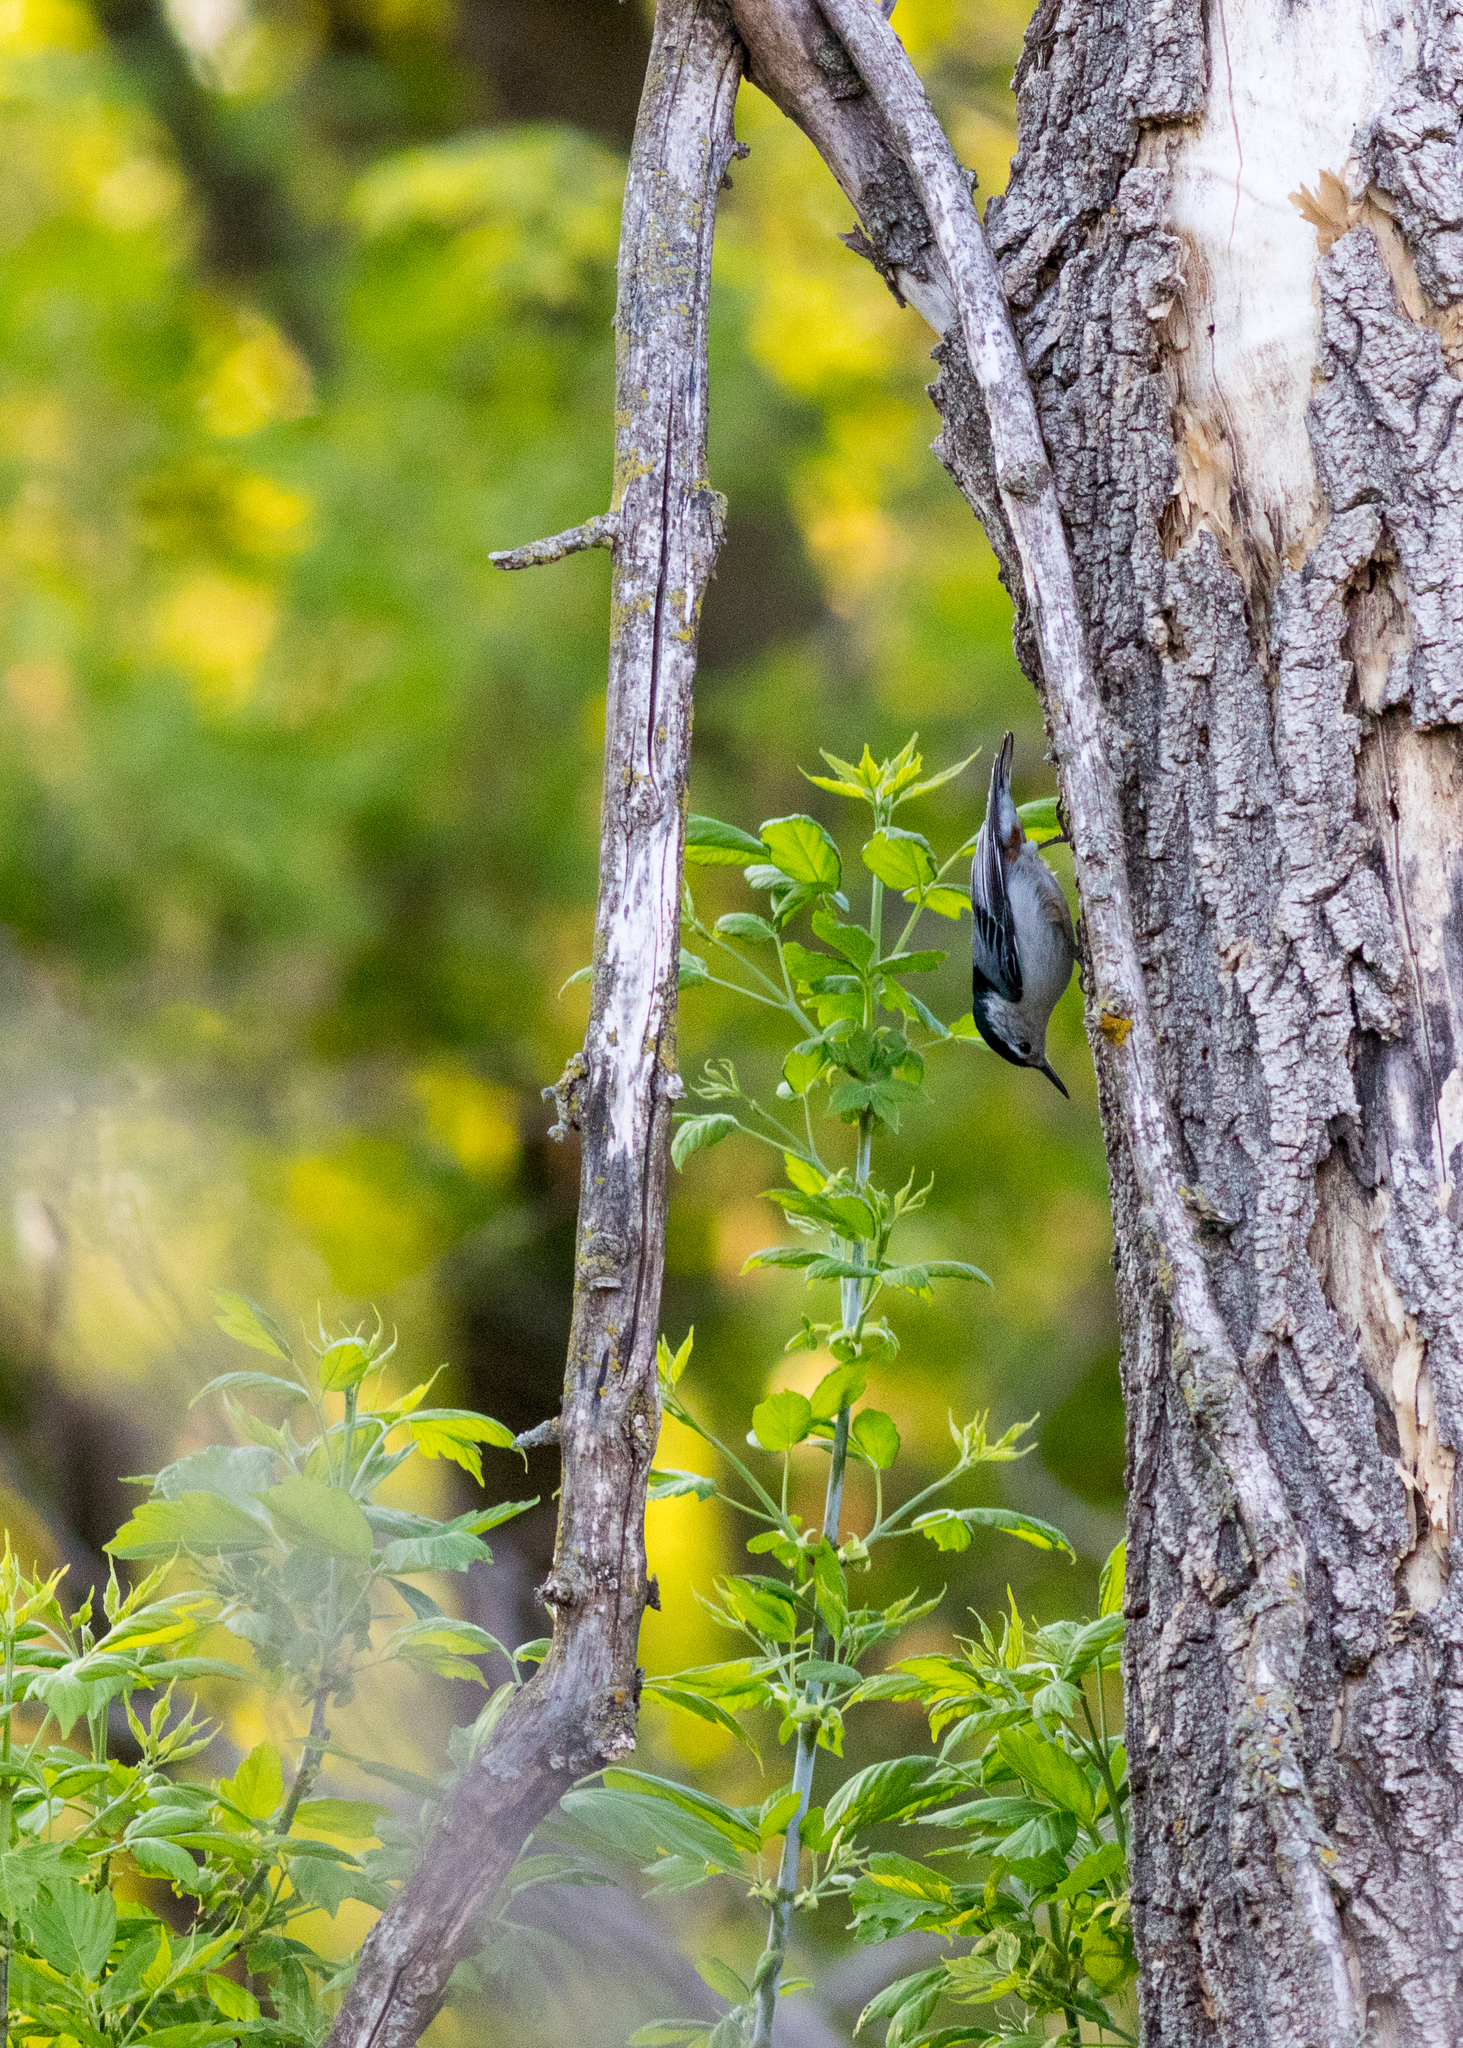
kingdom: Animalia
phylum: Chordata
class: Aves
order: Passeriformes
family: Sittidae
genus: Sitta
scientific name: Sitta carolinensis
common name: White-breasted nuthatch
